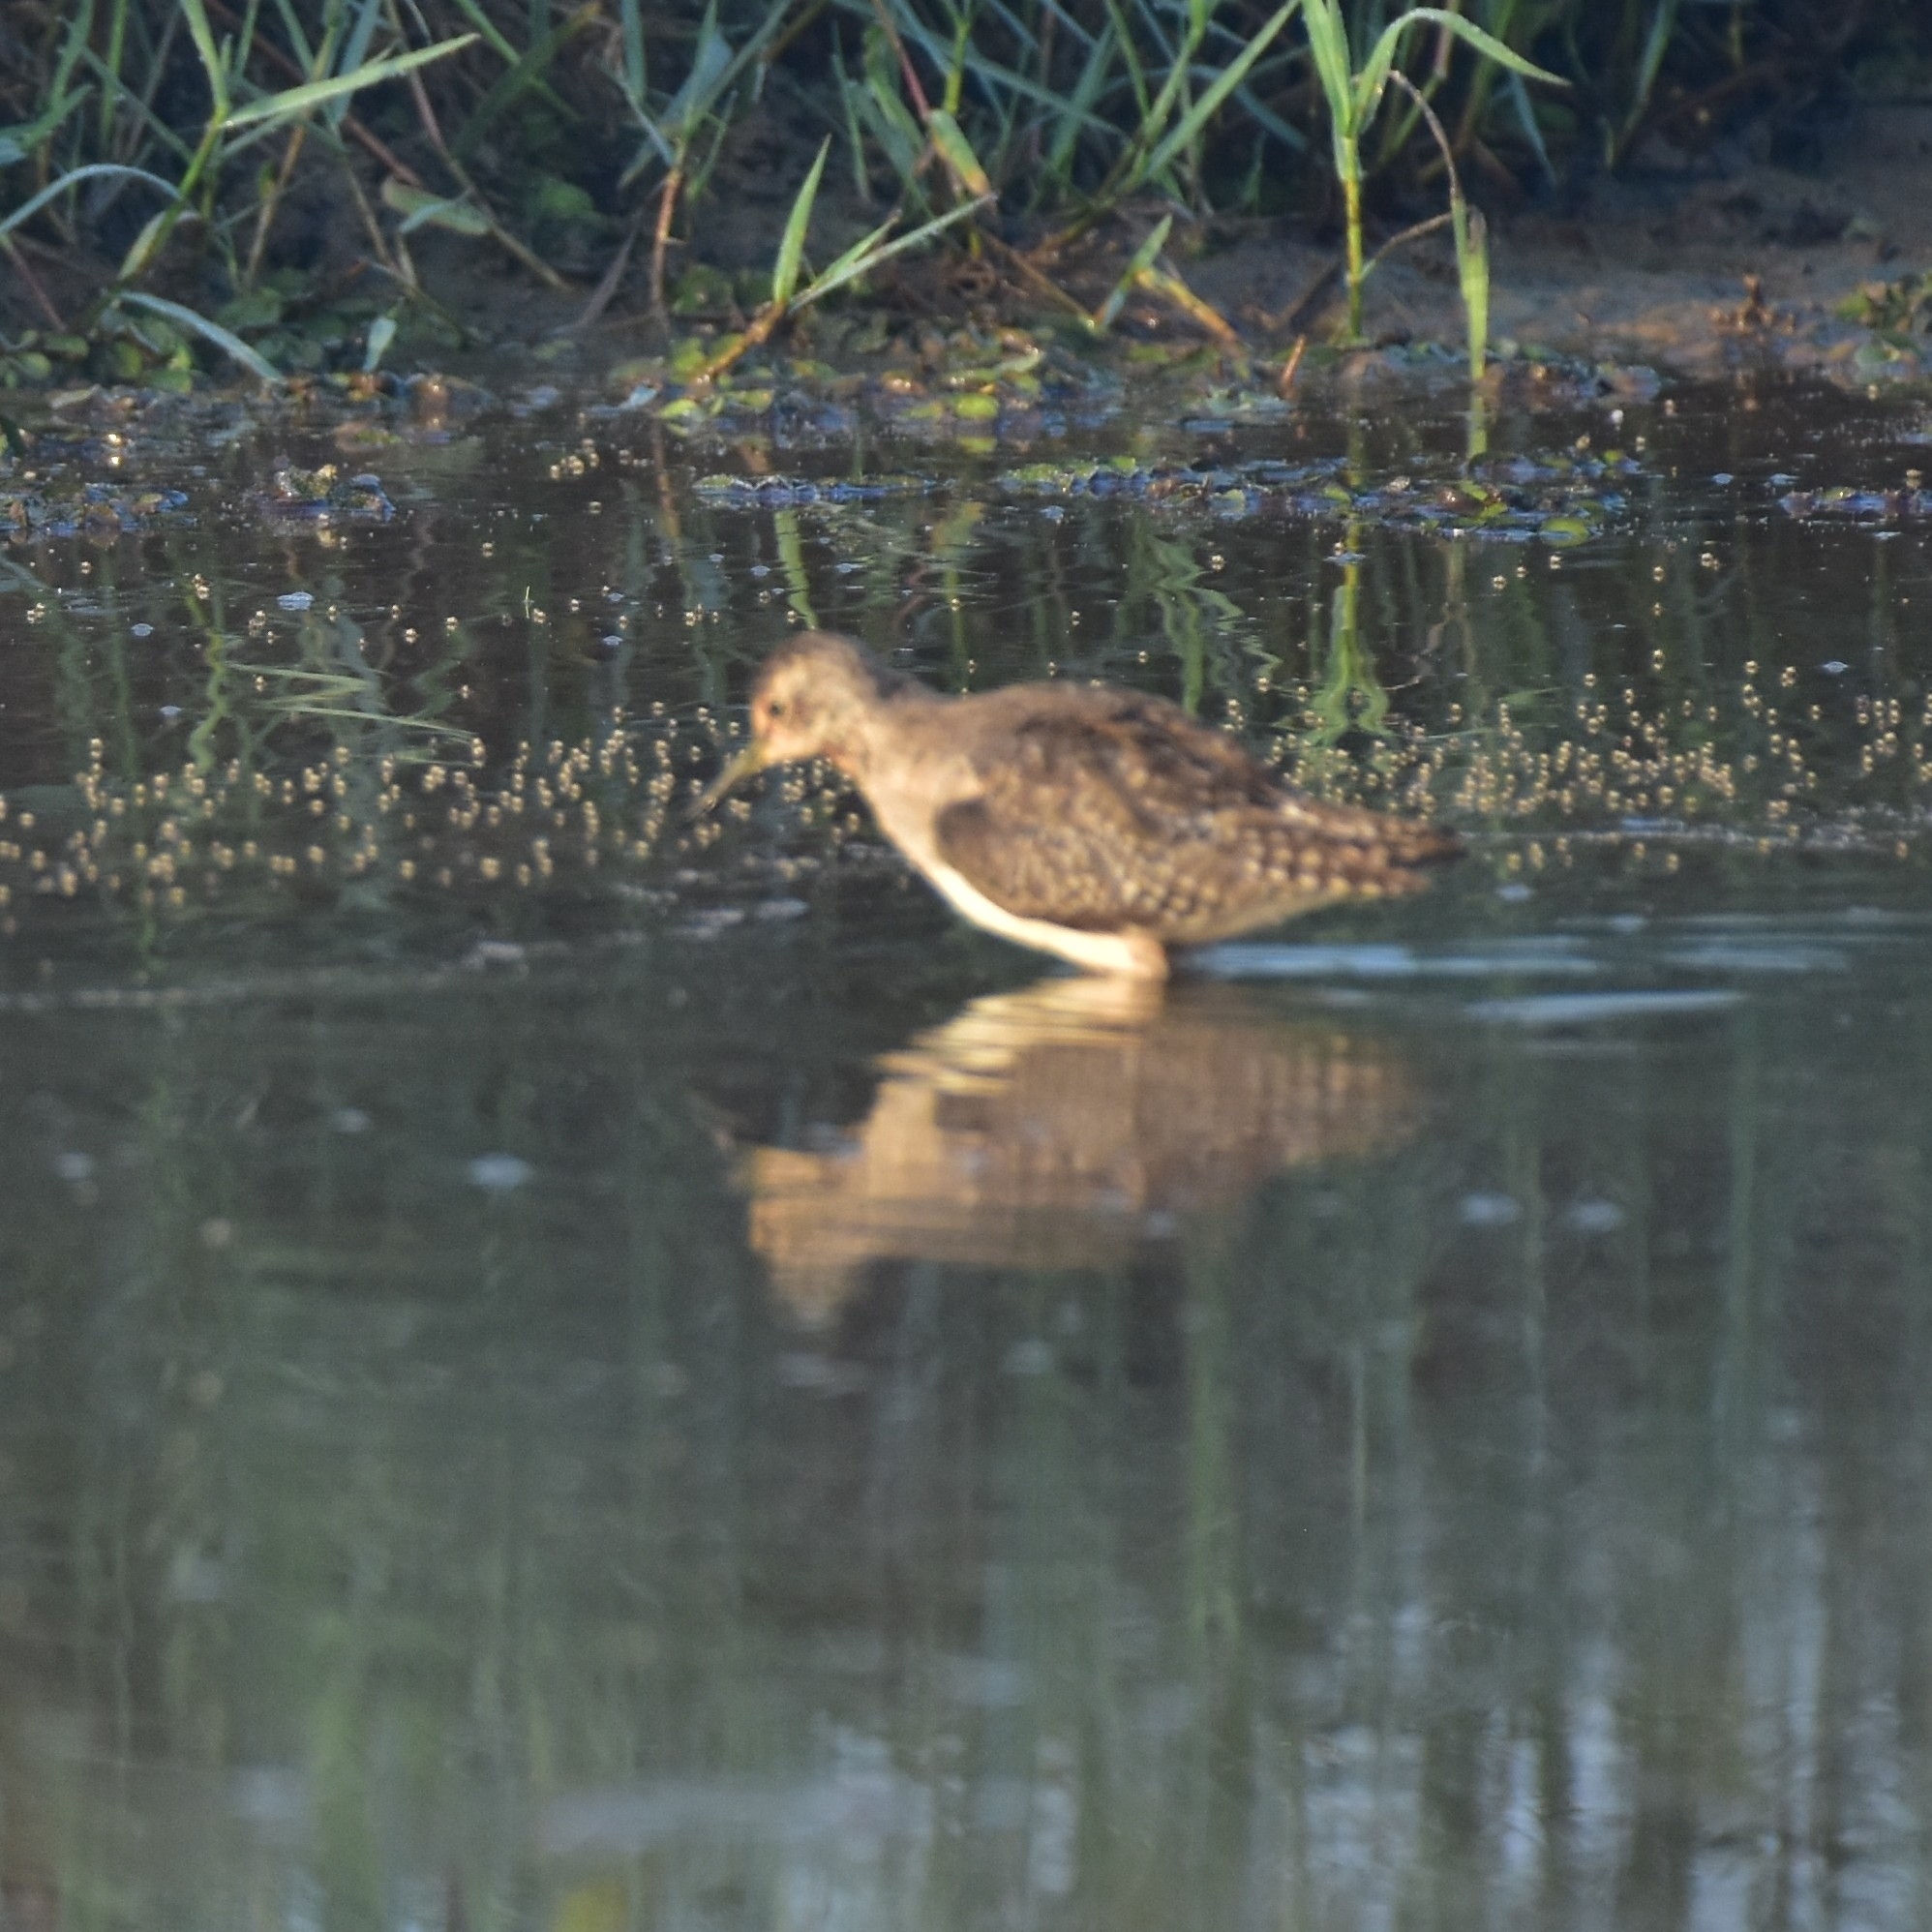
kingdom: Animalia
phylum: Chordata
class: Aves
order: Charadriiformes
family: Scolopacidae
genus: Tringa
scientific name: Tringa glareola
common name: Wood sandpiper
